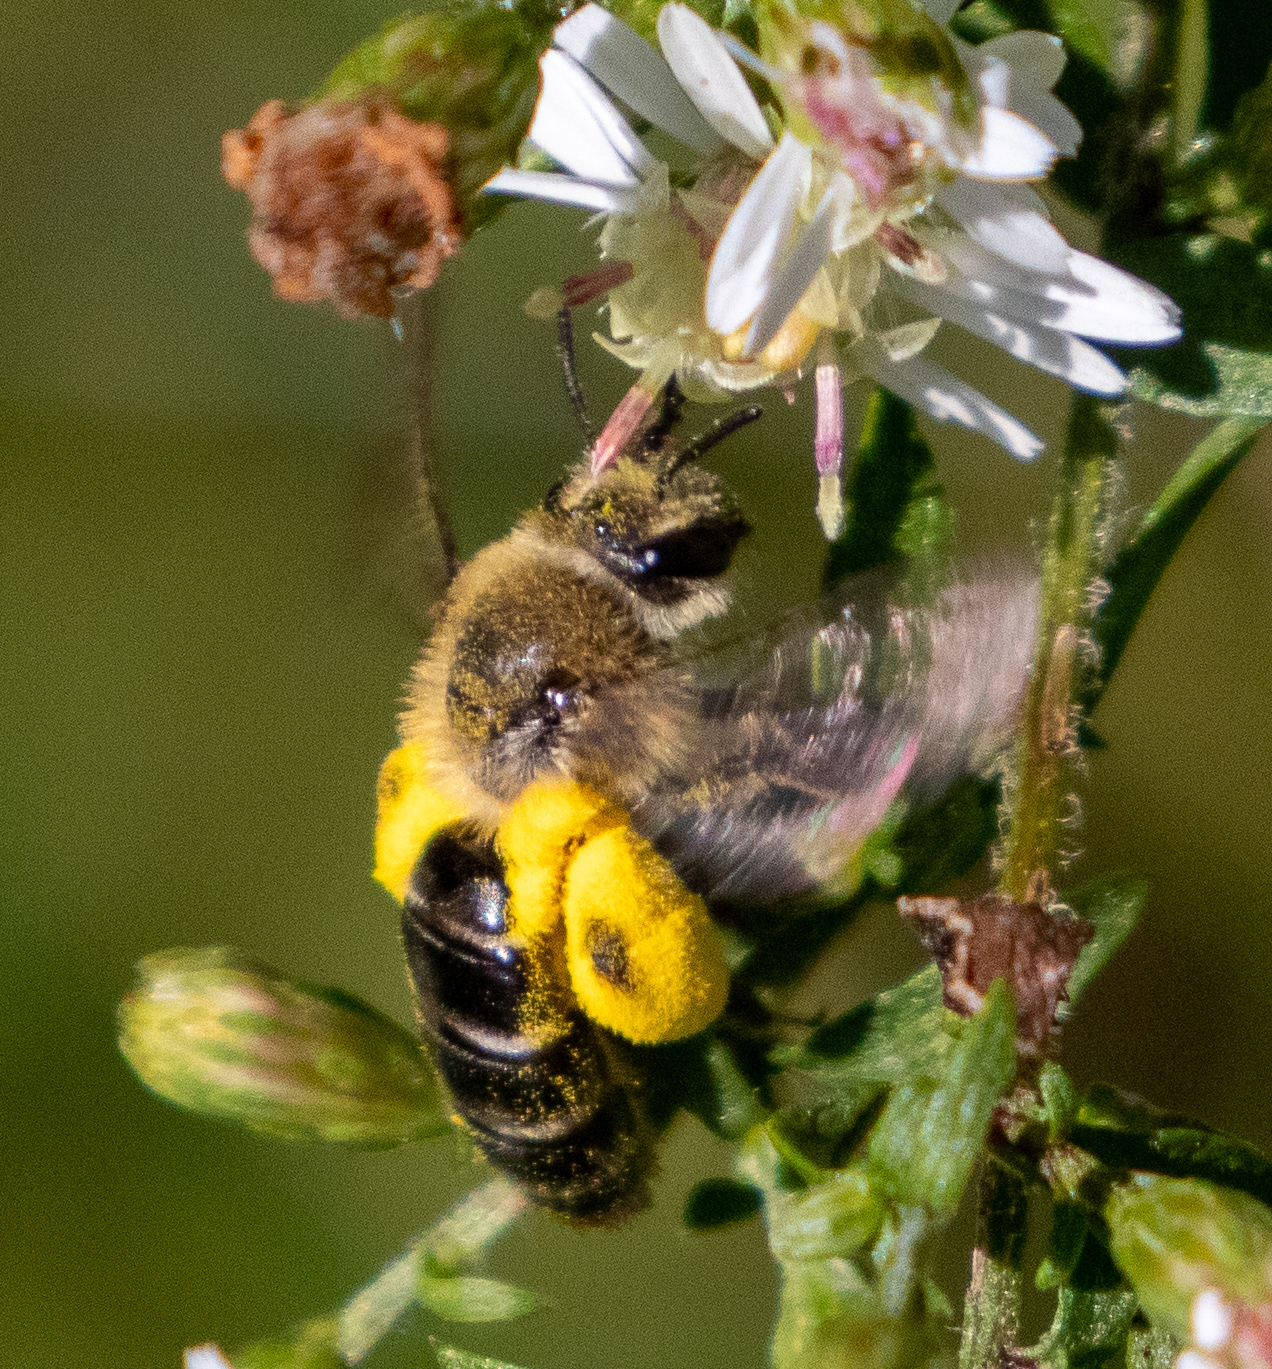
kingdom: Animalia
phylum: Arthropoda
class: Insecta
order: Hymenoptera
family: Andrenidae
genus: Andrena
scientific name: Andrena asteris
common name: Aster mining bee
